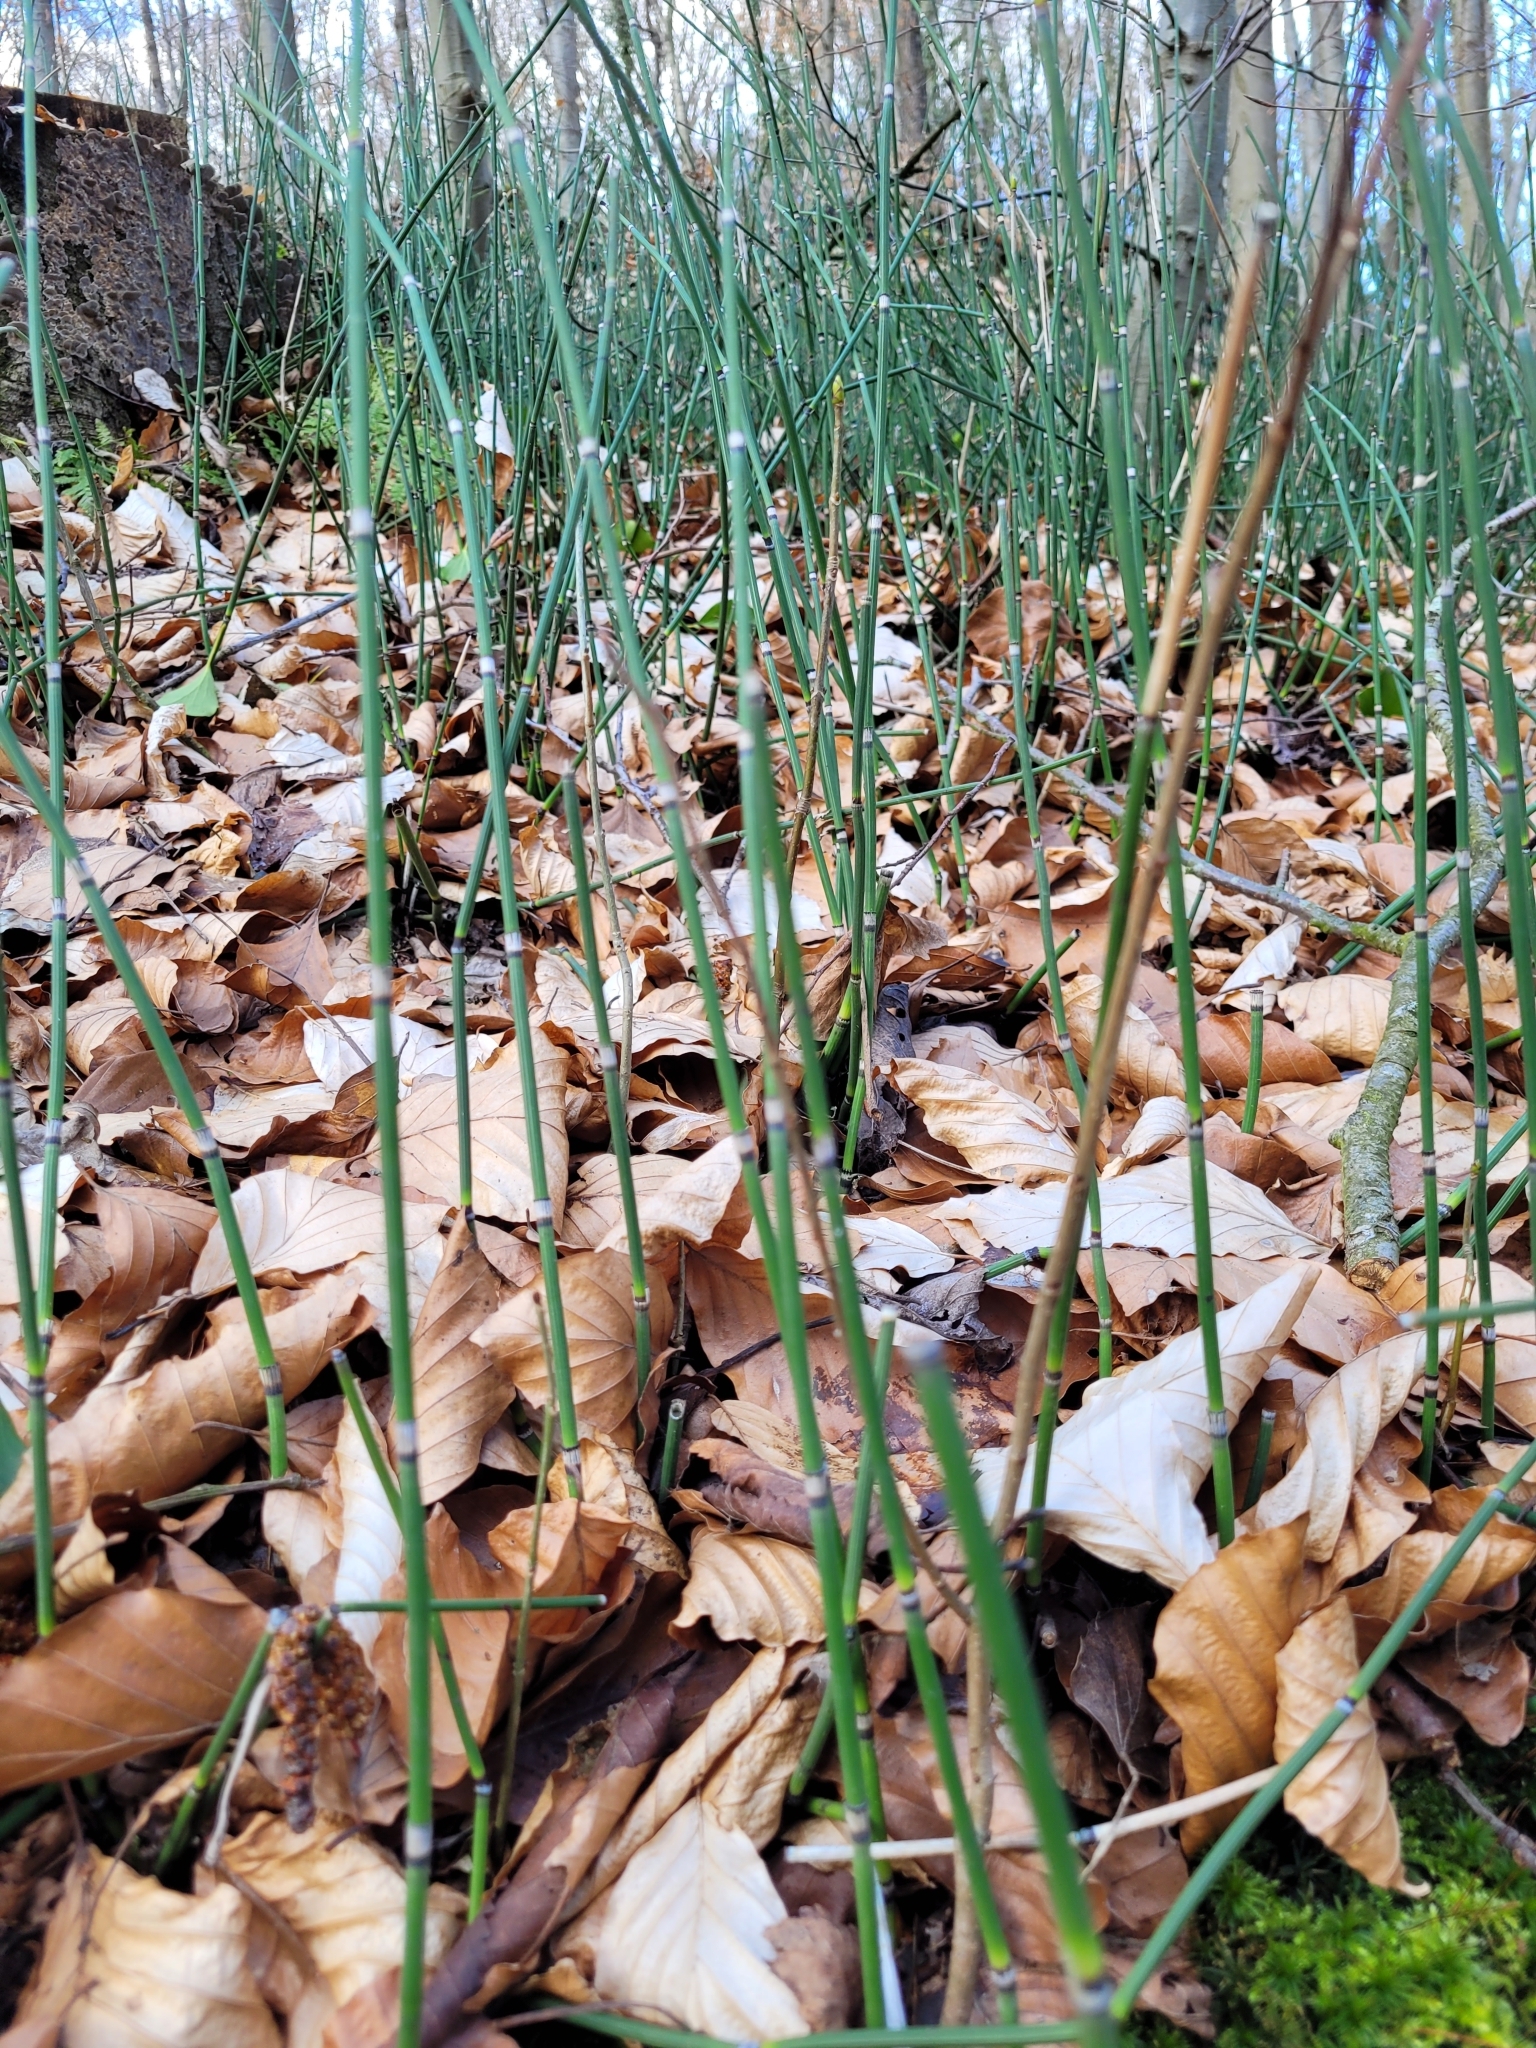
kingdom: Plantae
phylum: Tracheophyta
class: Polypodiopsida
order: Equisetales
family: Equisetaceae
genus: Equisetum
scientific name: Equisetum hyemale
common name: Rough horsetail
